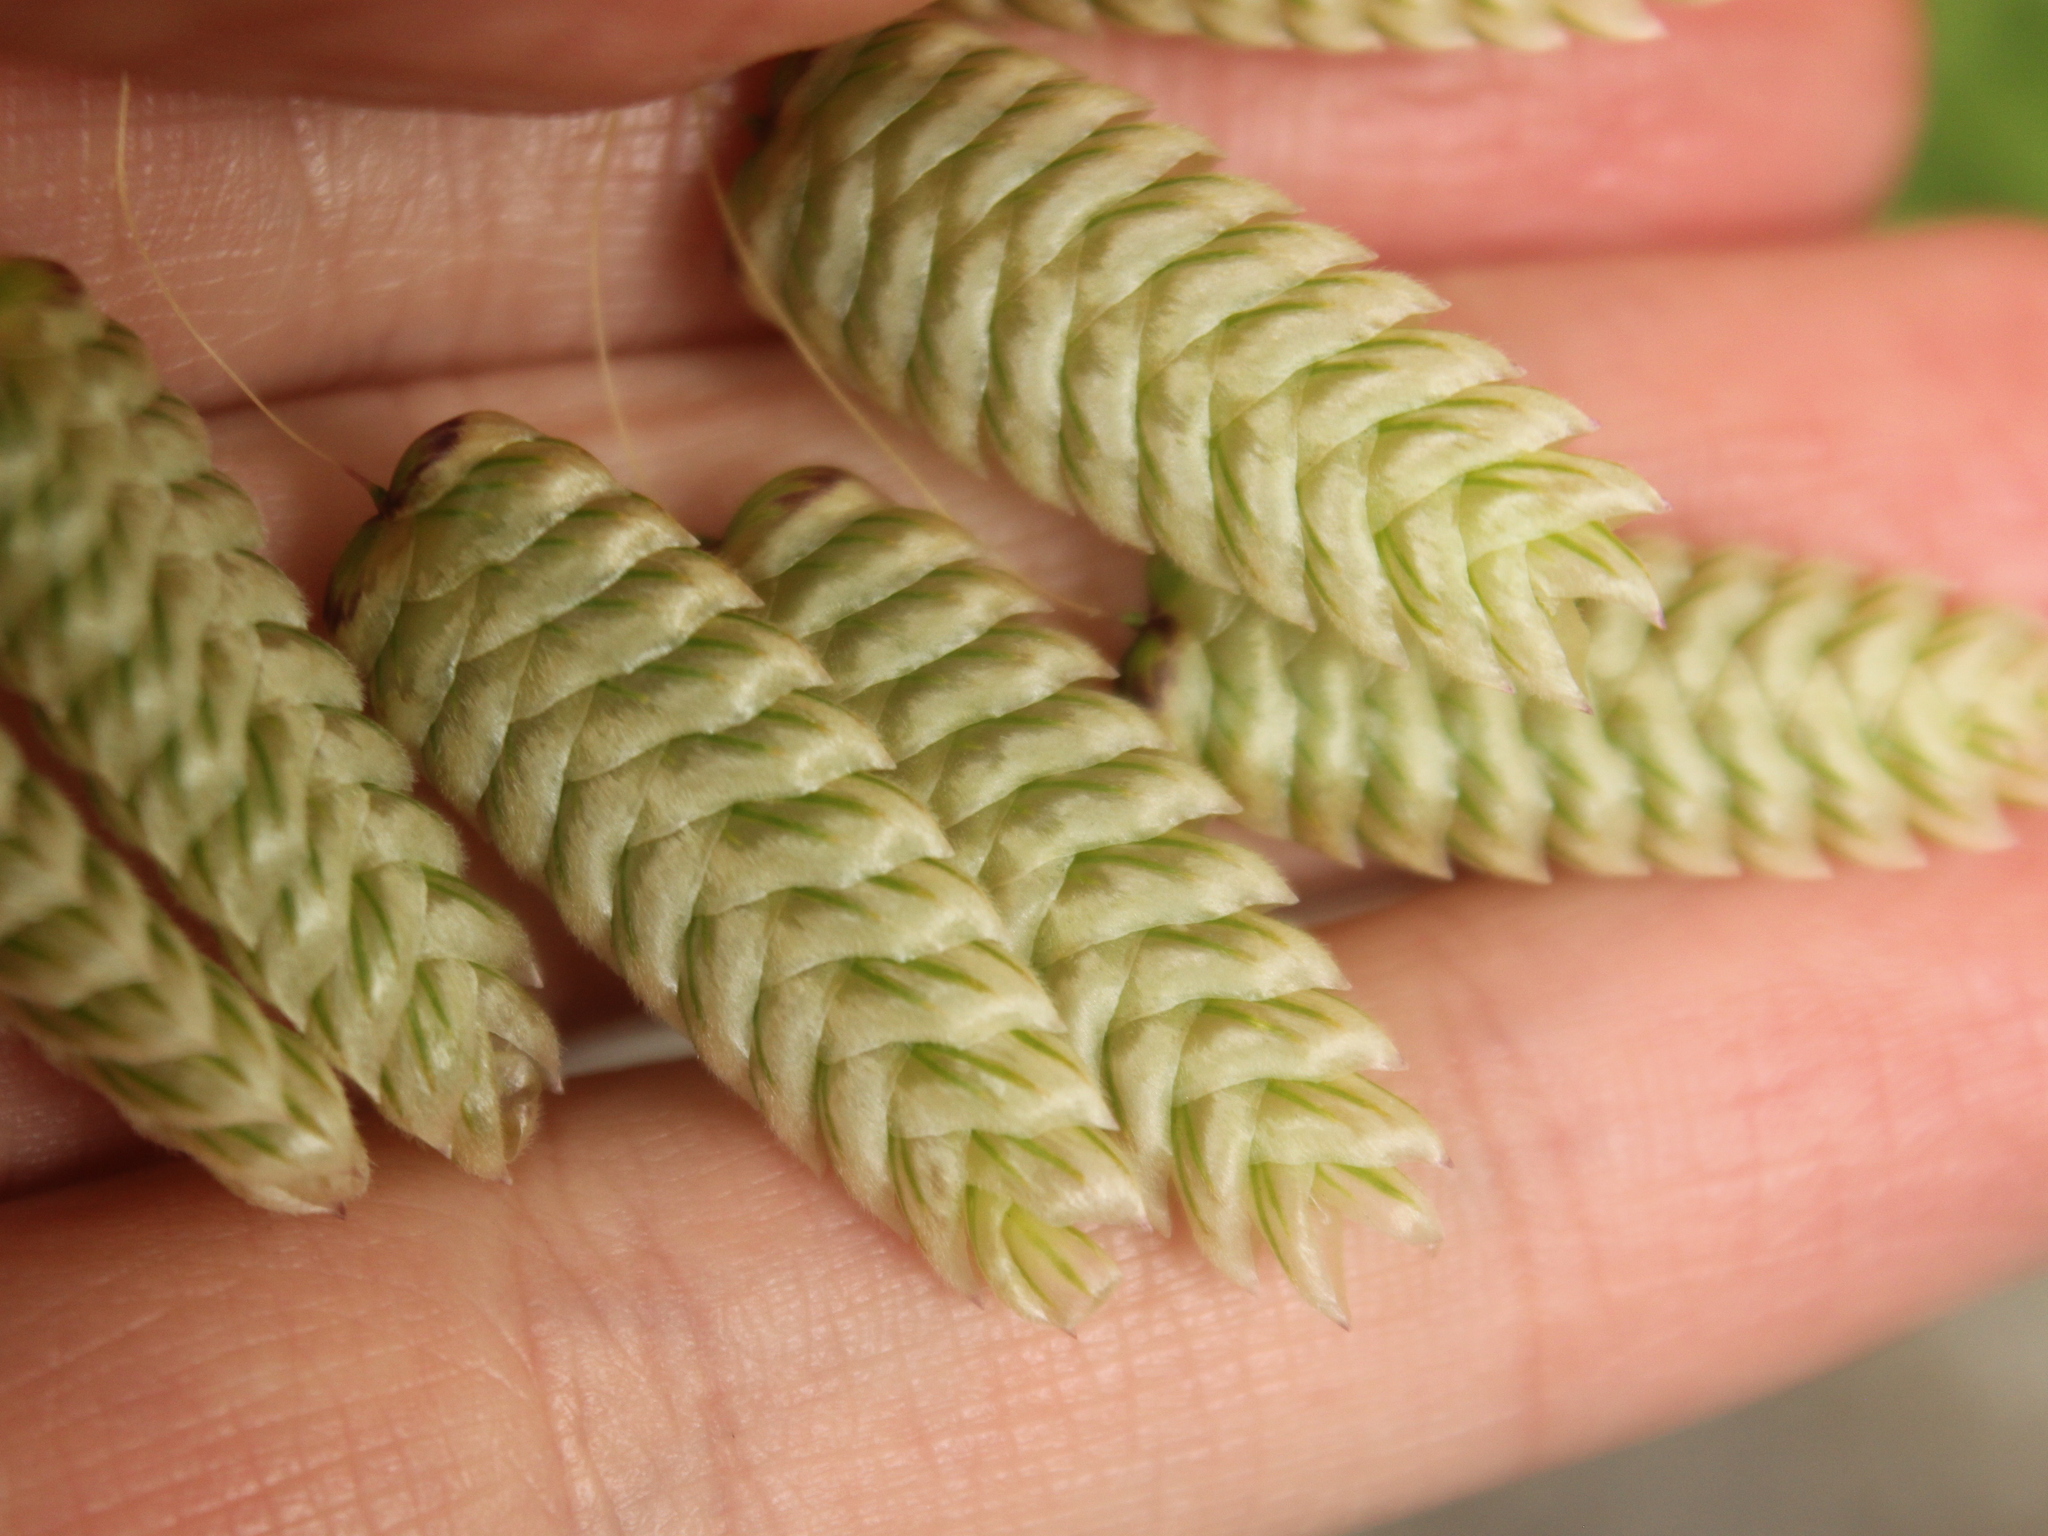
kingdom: Plantae
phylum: Tracheophyta
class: Liliopsida
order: Poales
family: Poaceae
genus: Briza
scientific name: Briza maxima
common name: Big quakinggrass
